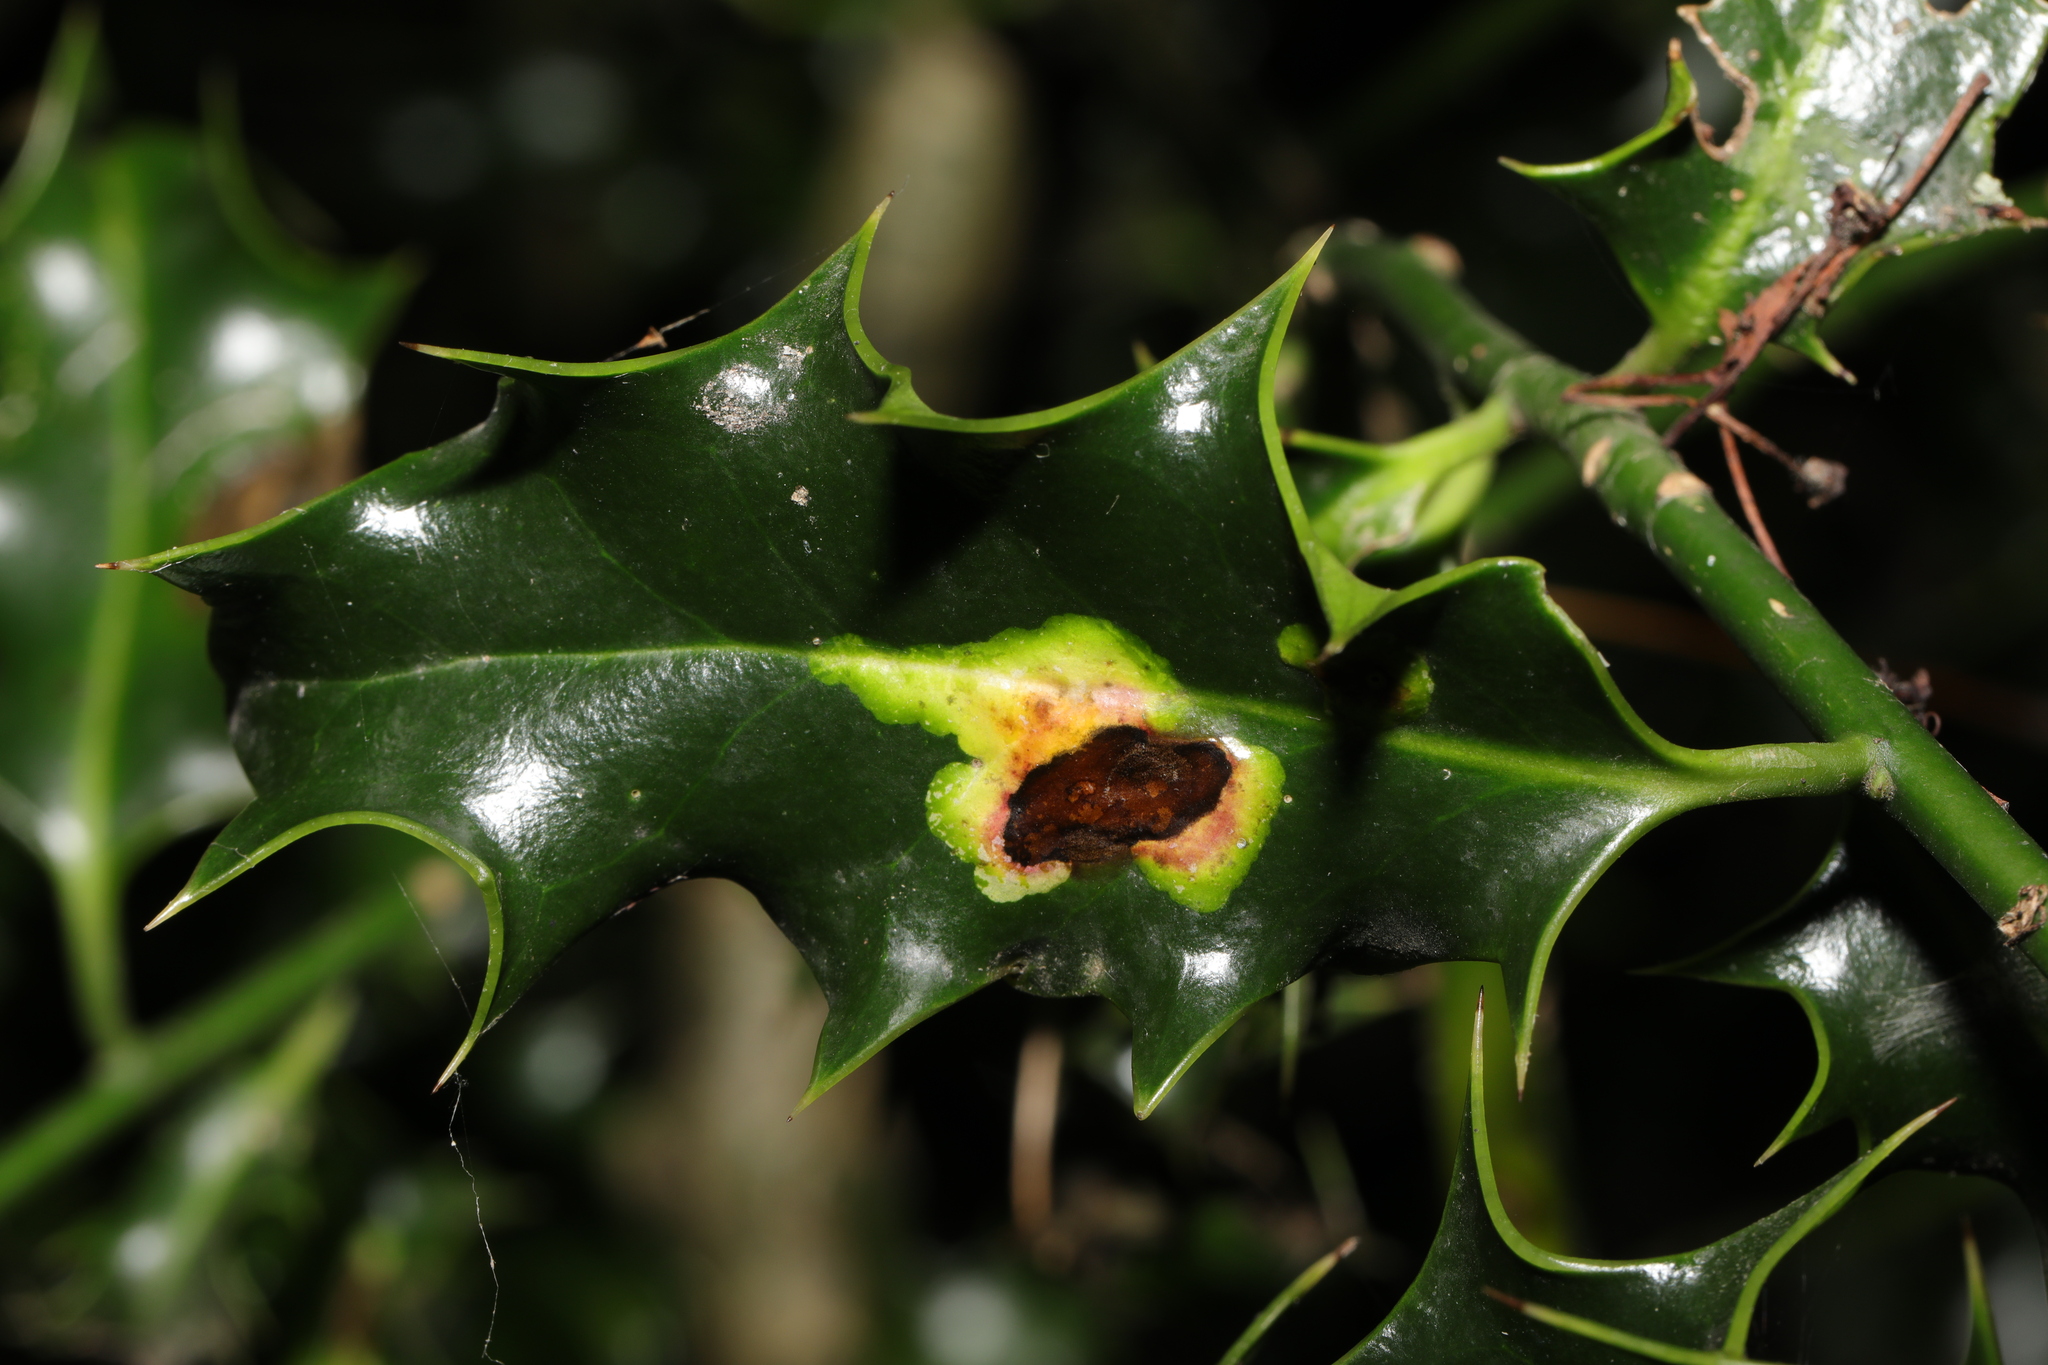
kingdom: Animalia
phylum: Arthropoda
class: Insecta
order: Diptera
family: Agromyzidae
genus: Phytomyza
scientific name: Phytomyza ilicis
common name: Holly leafminer
